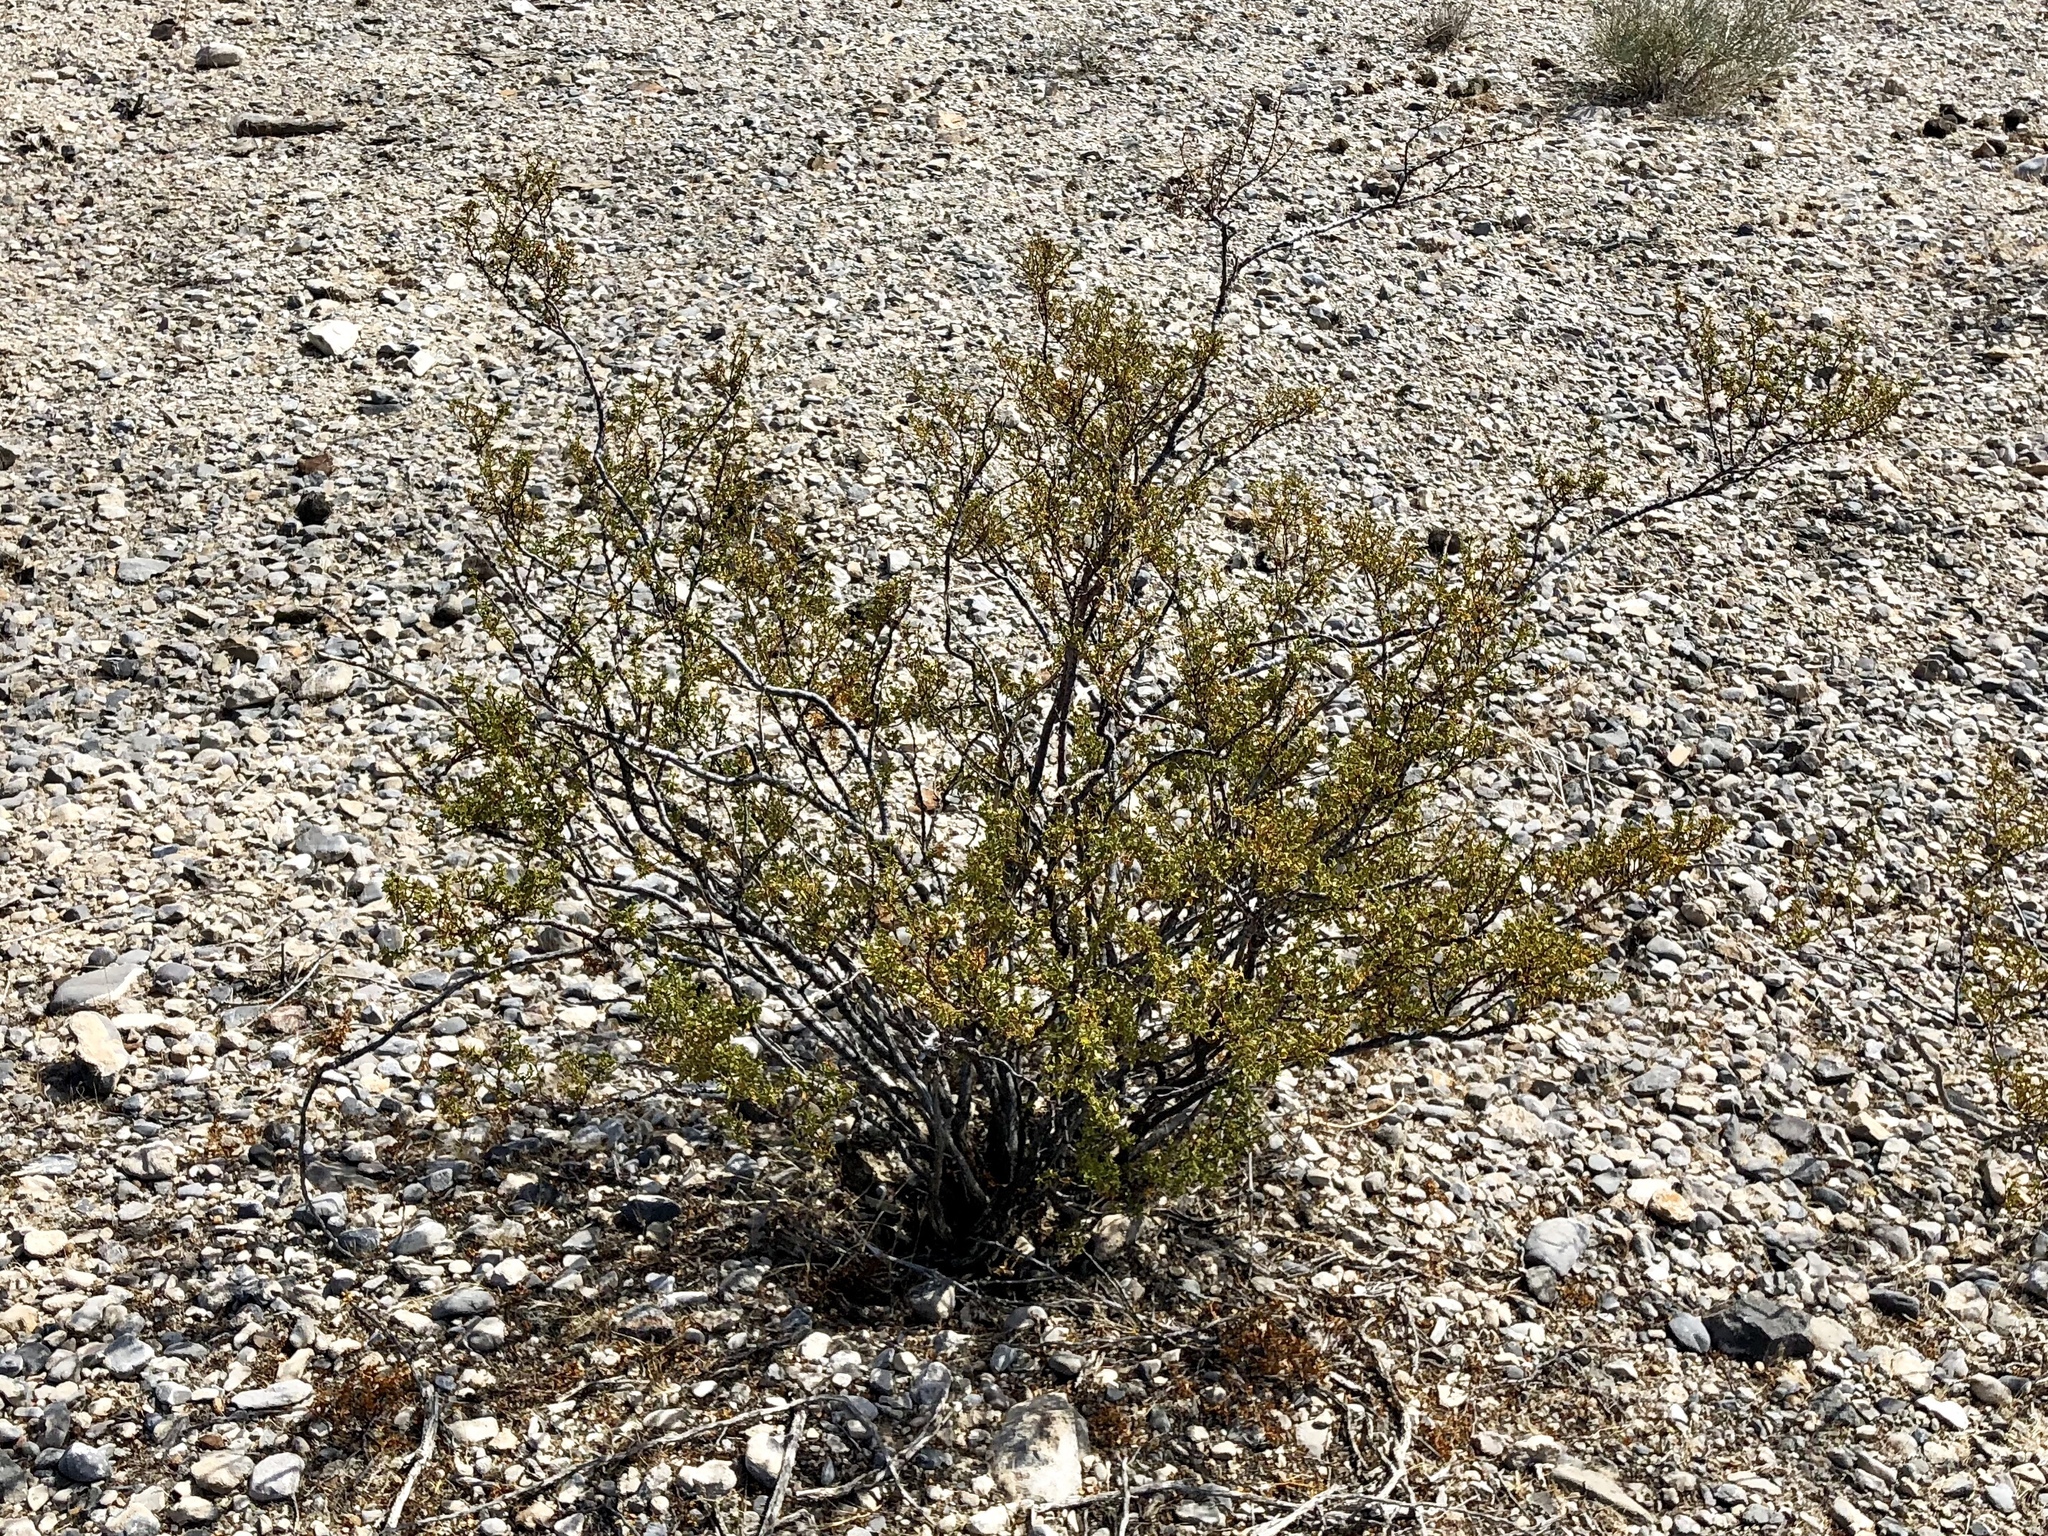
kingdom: Plantae
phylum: Tracheophyta
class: Magnoliopsida
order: Zygophyllales
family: Zygophyllaceae
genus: Larrea
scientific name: Larrea tridentata
